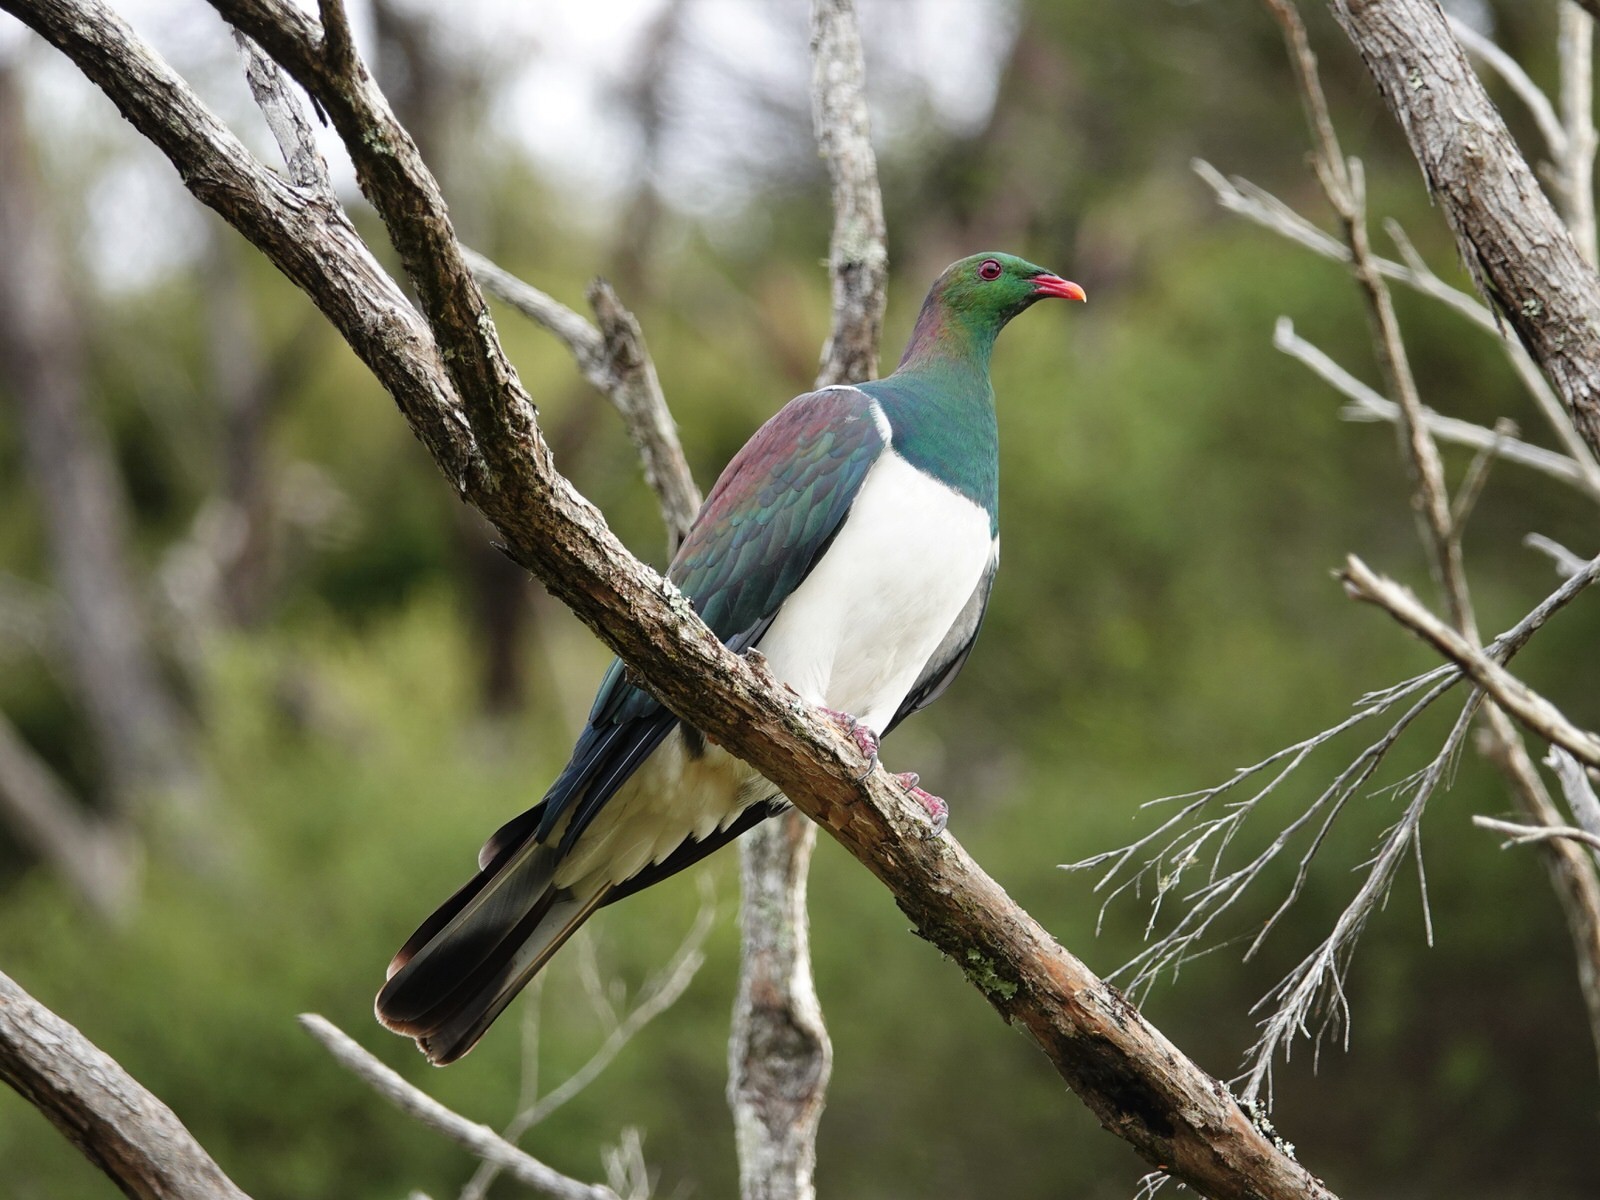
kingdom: Animalia
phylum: Chordata
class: Aves
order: Columbiformes
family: Columbidae
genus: Hemiphaga
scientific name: Hemiphaga novaeseelandiae
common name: New zealand pigeon
